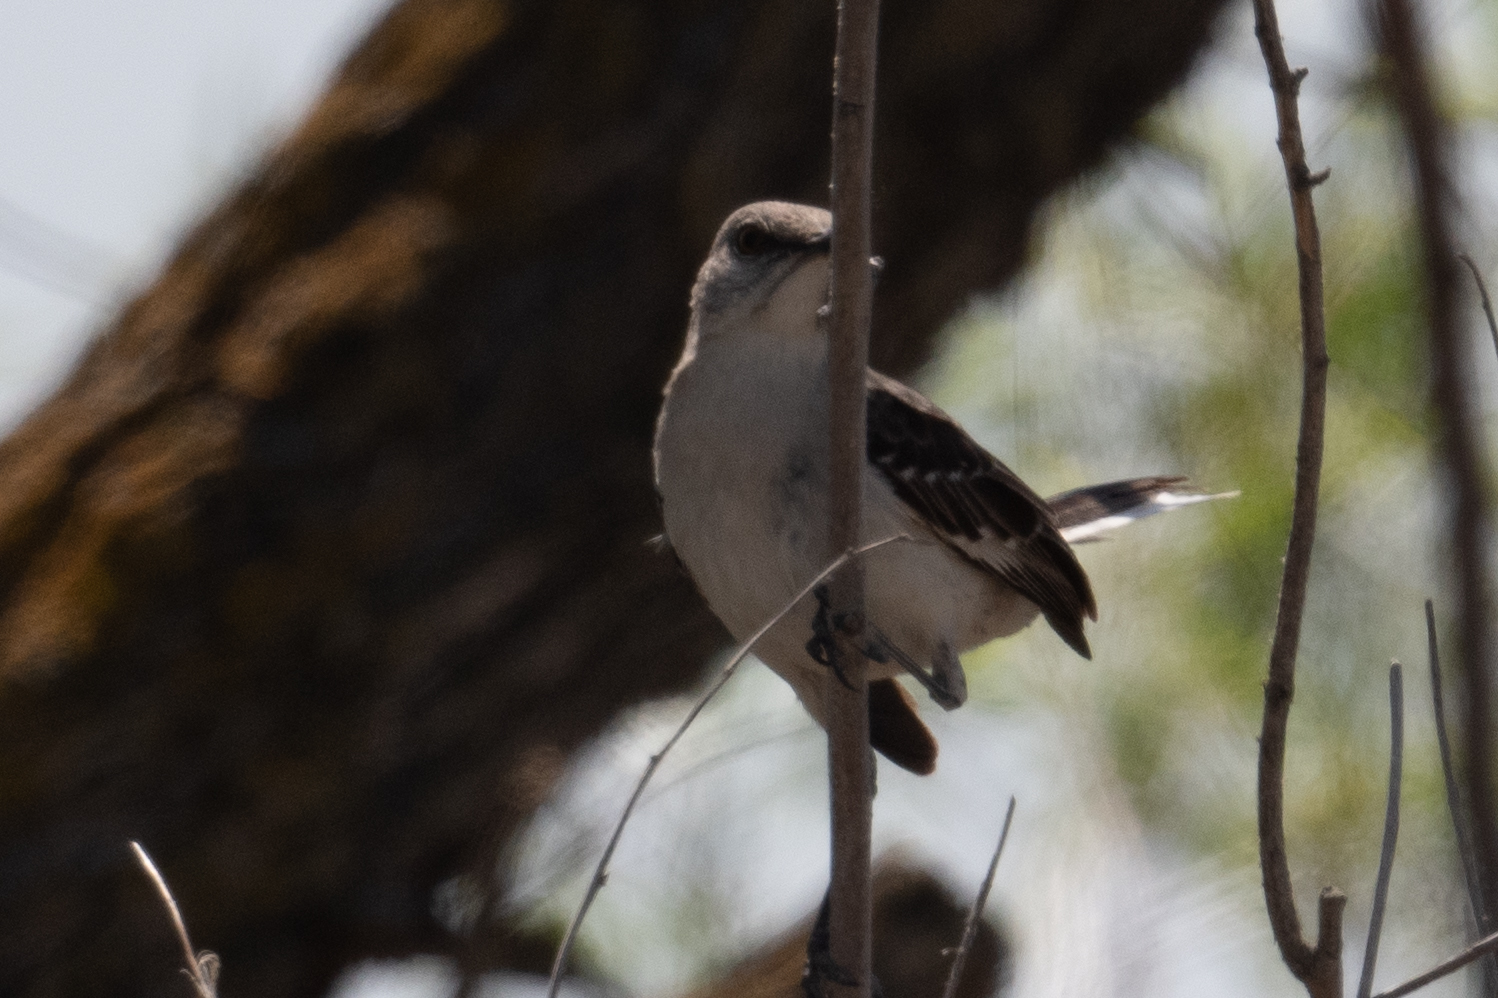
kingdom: Animalia
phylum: Chordata
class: Aves
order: Passeriformes
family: Mimidae
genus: Mimus
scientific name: Mimus polyglottos
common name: Northern mockingbird
